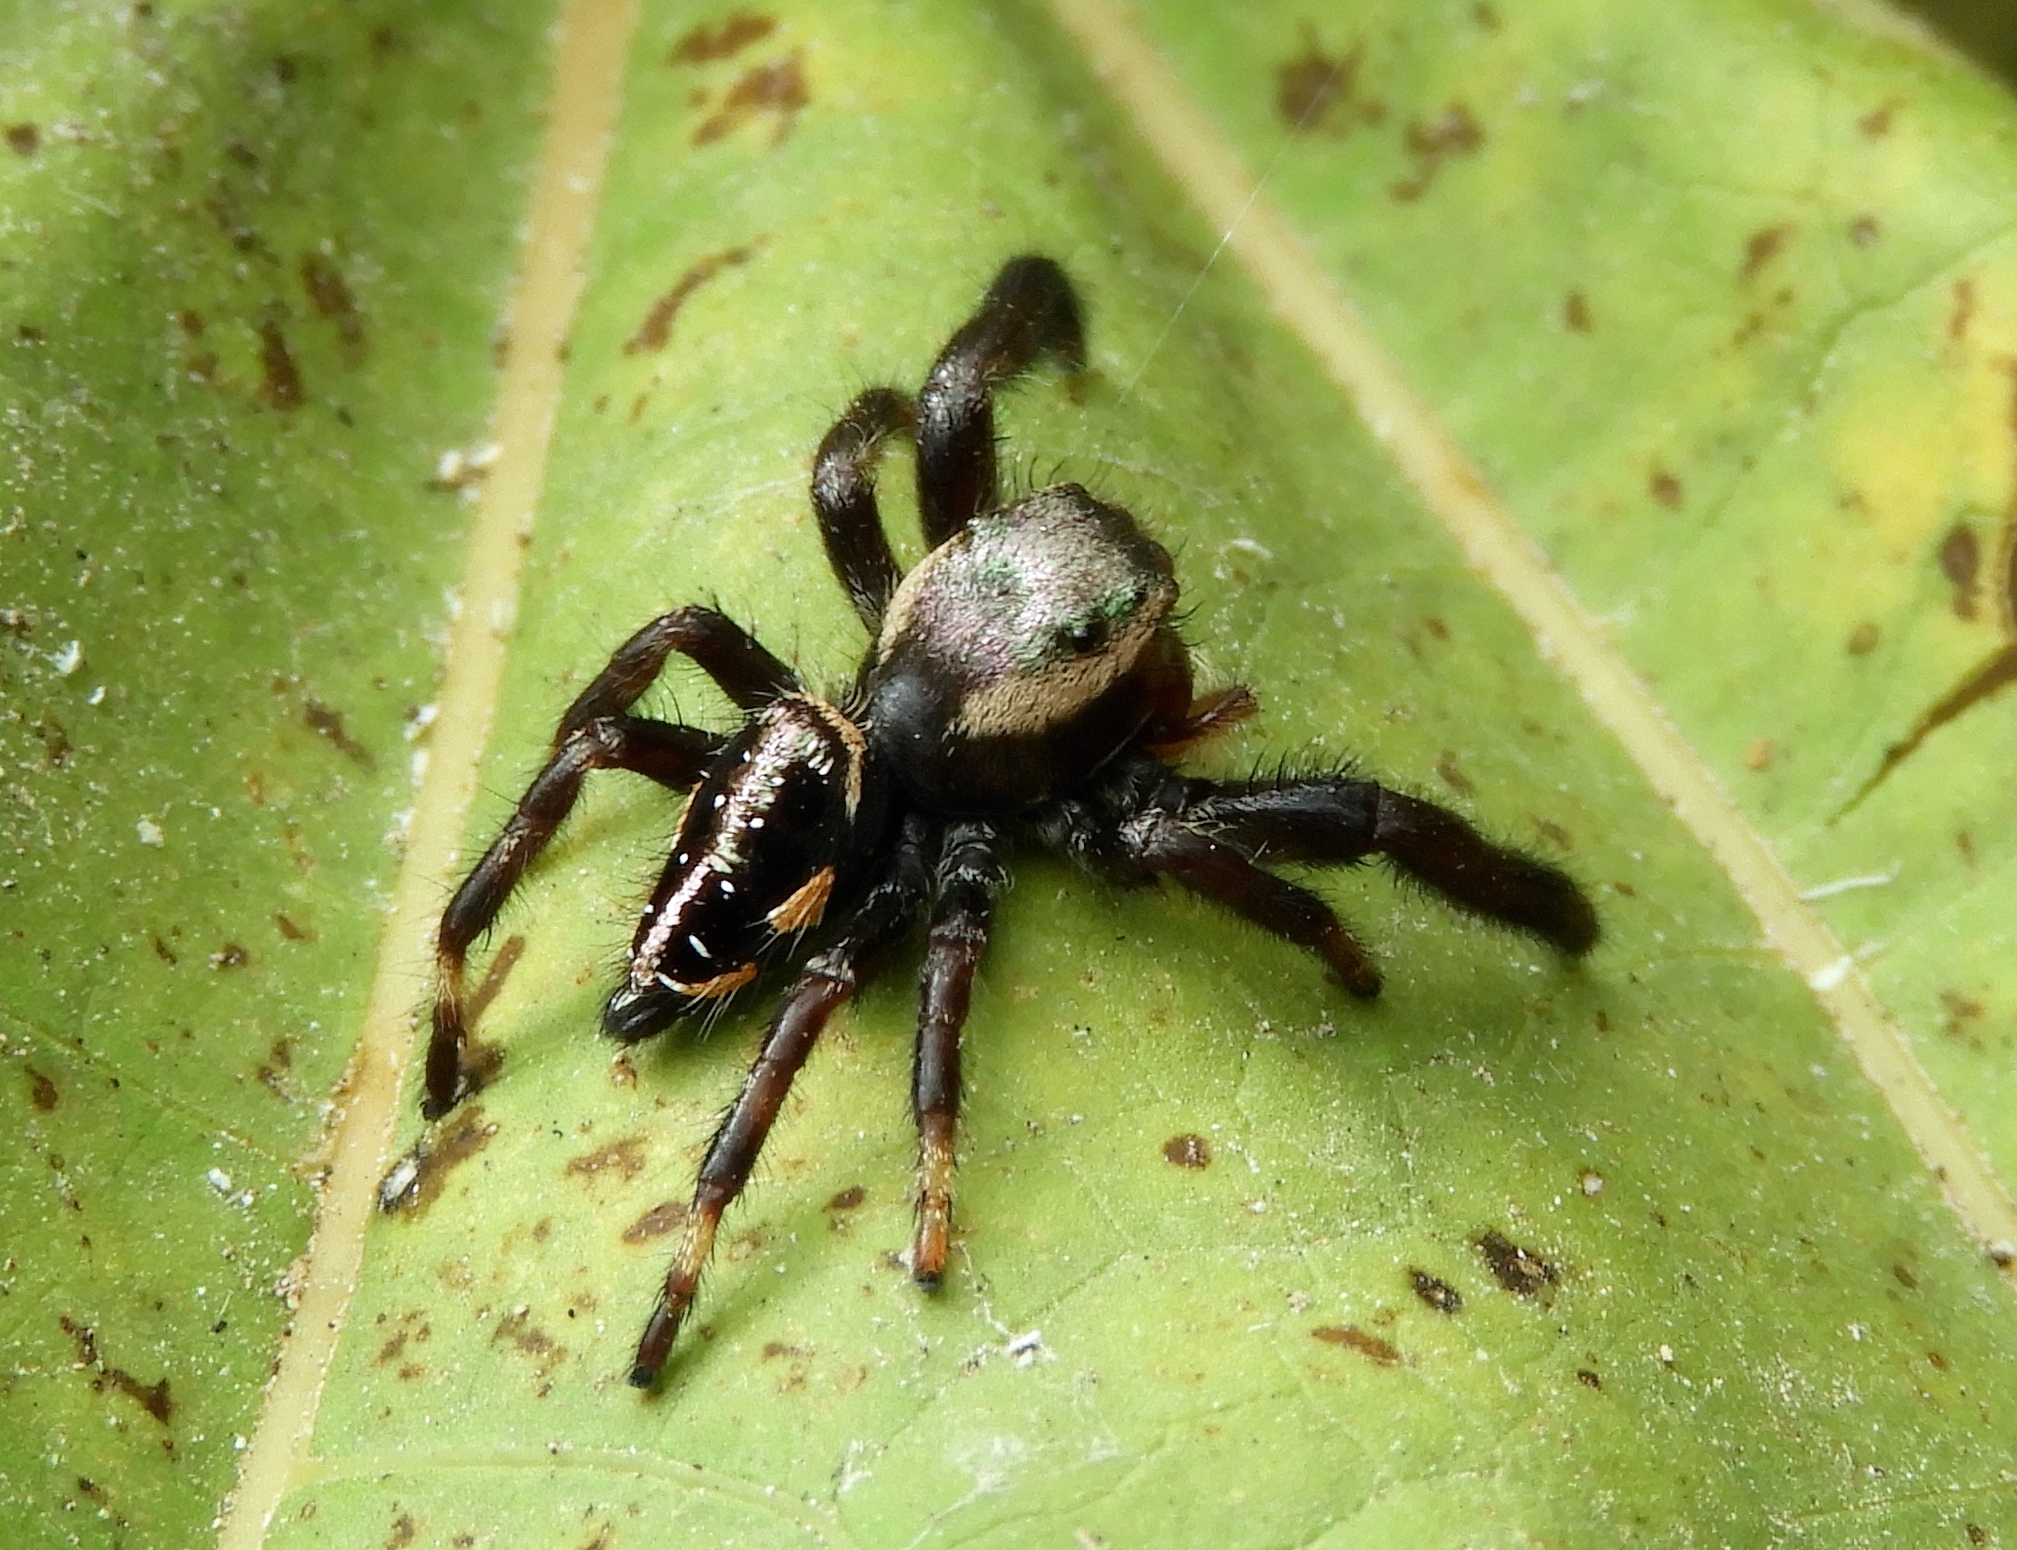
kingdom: Animalia
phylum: Arthropoda
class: Arachnida
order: Araneae
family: Salticidae
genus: Paraphidippus
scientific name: Paraphidippus
